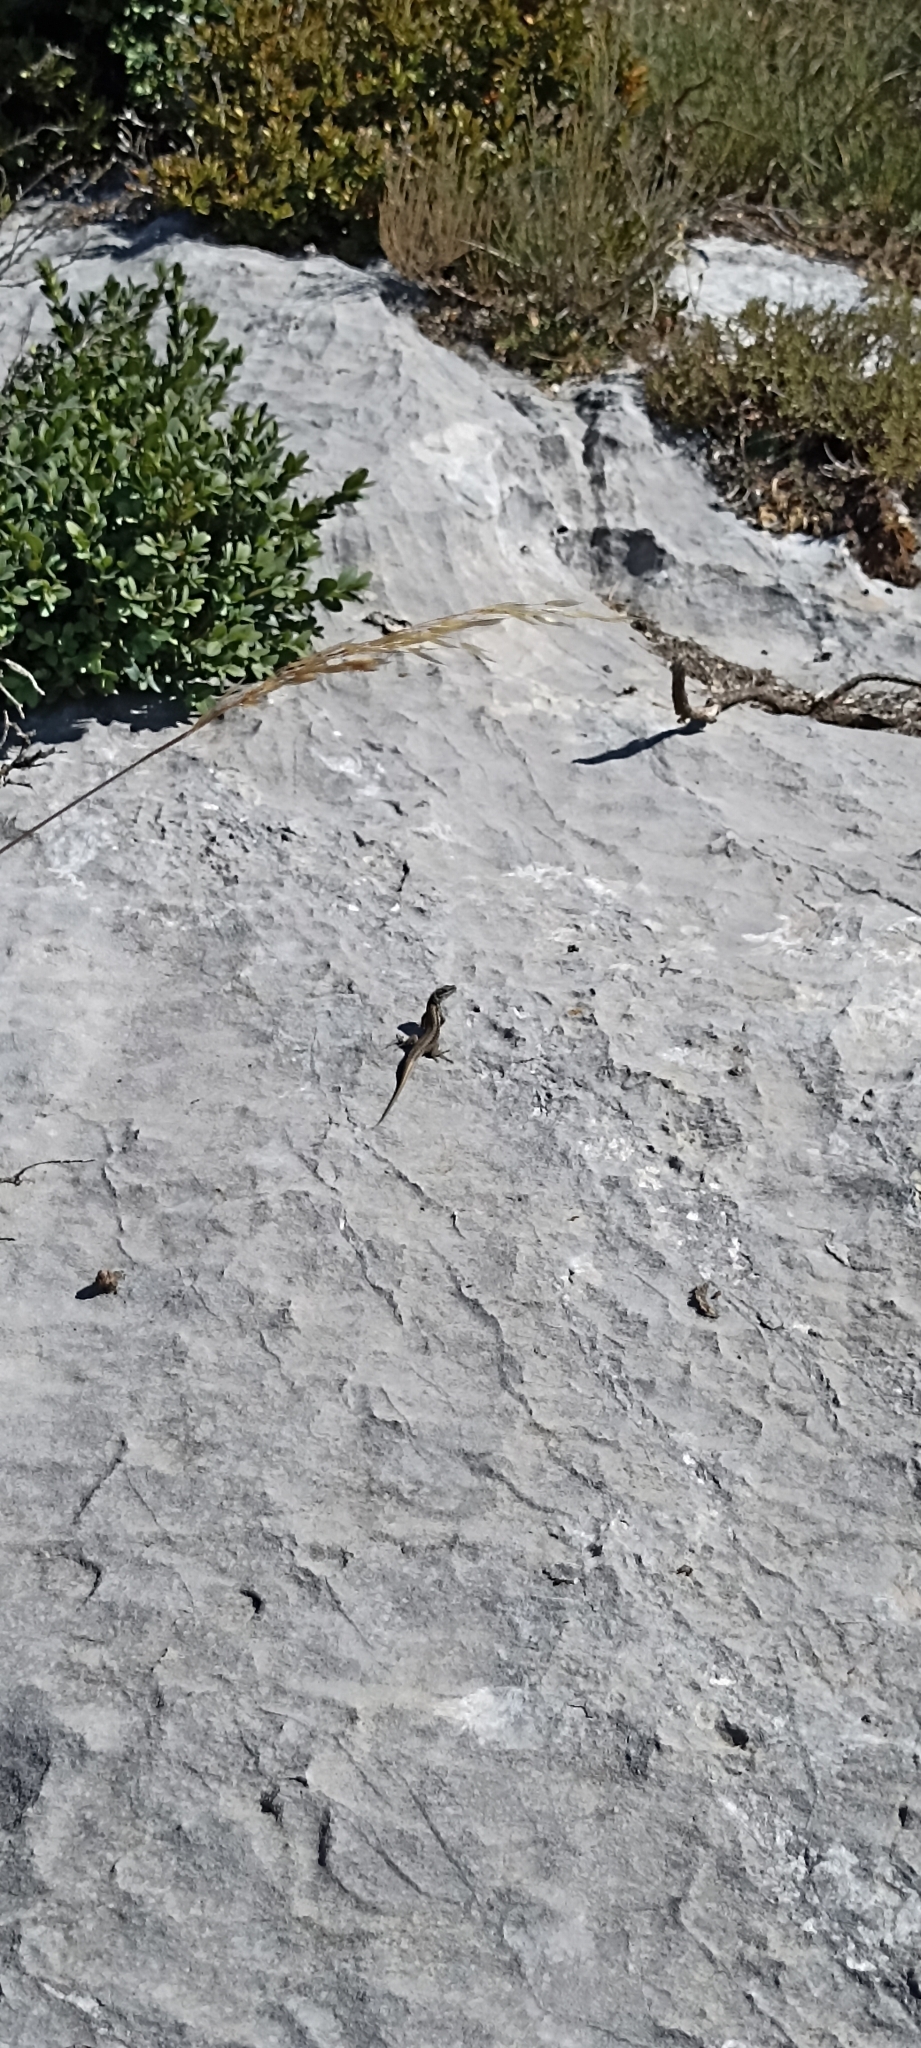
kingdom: Animalia
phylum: Chordata
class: Squamata
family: Lacertidae
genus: Podarcis
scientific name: Podarcis muralis
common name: Common wall lizard
